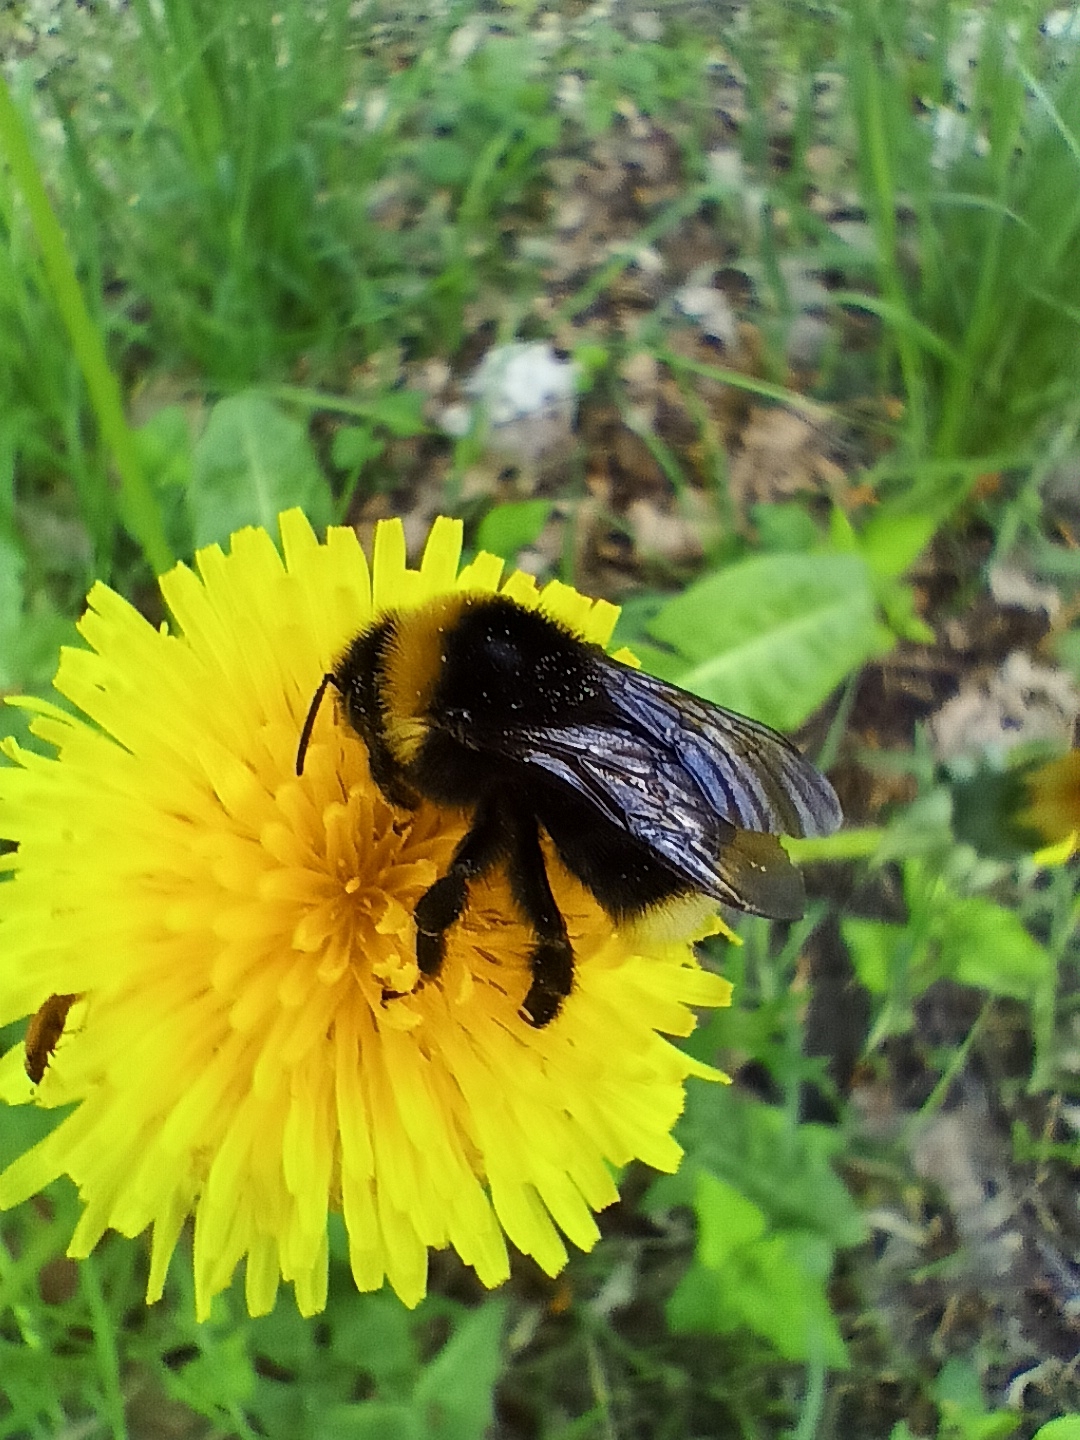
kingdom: Animalia
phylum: Arthropoda
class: Insecta
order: Hymenoptera
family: Apidae
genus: Bombus
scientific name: Bombus bohemicus
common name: Gypsy cuckoo bee
